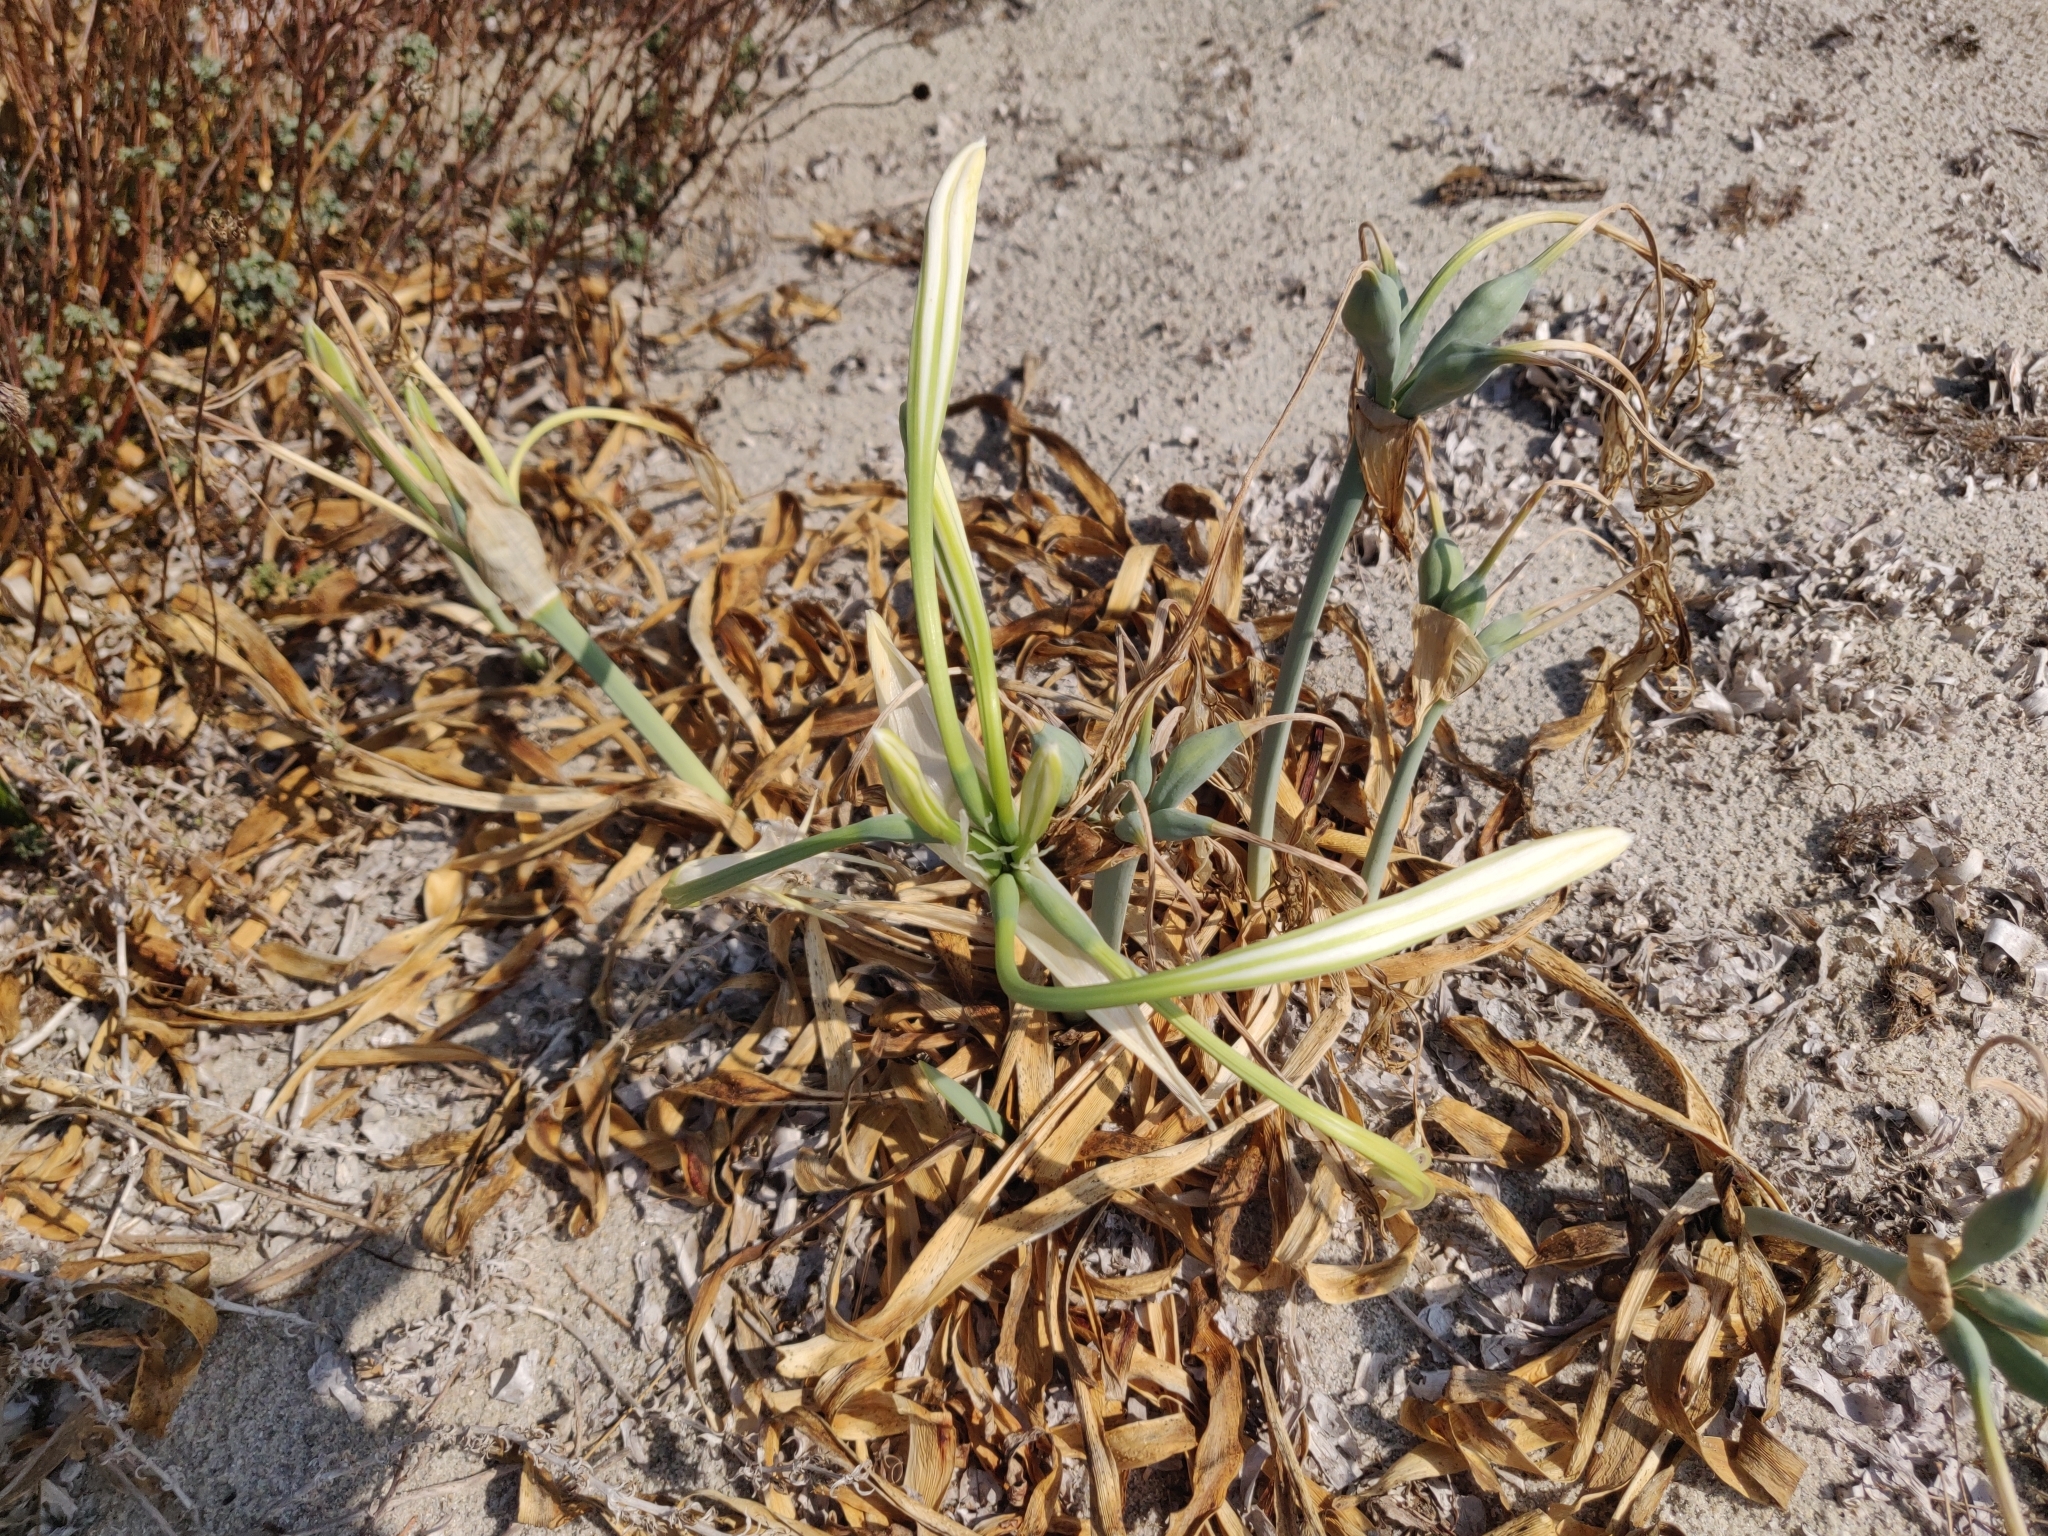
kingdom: Plantae
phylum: Tracheophyta
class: Liliopsida
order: Asparagales
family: Amaryllidaceae
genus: Pancratium
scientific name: Pancratium maritimum
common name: Sea-daffodil
